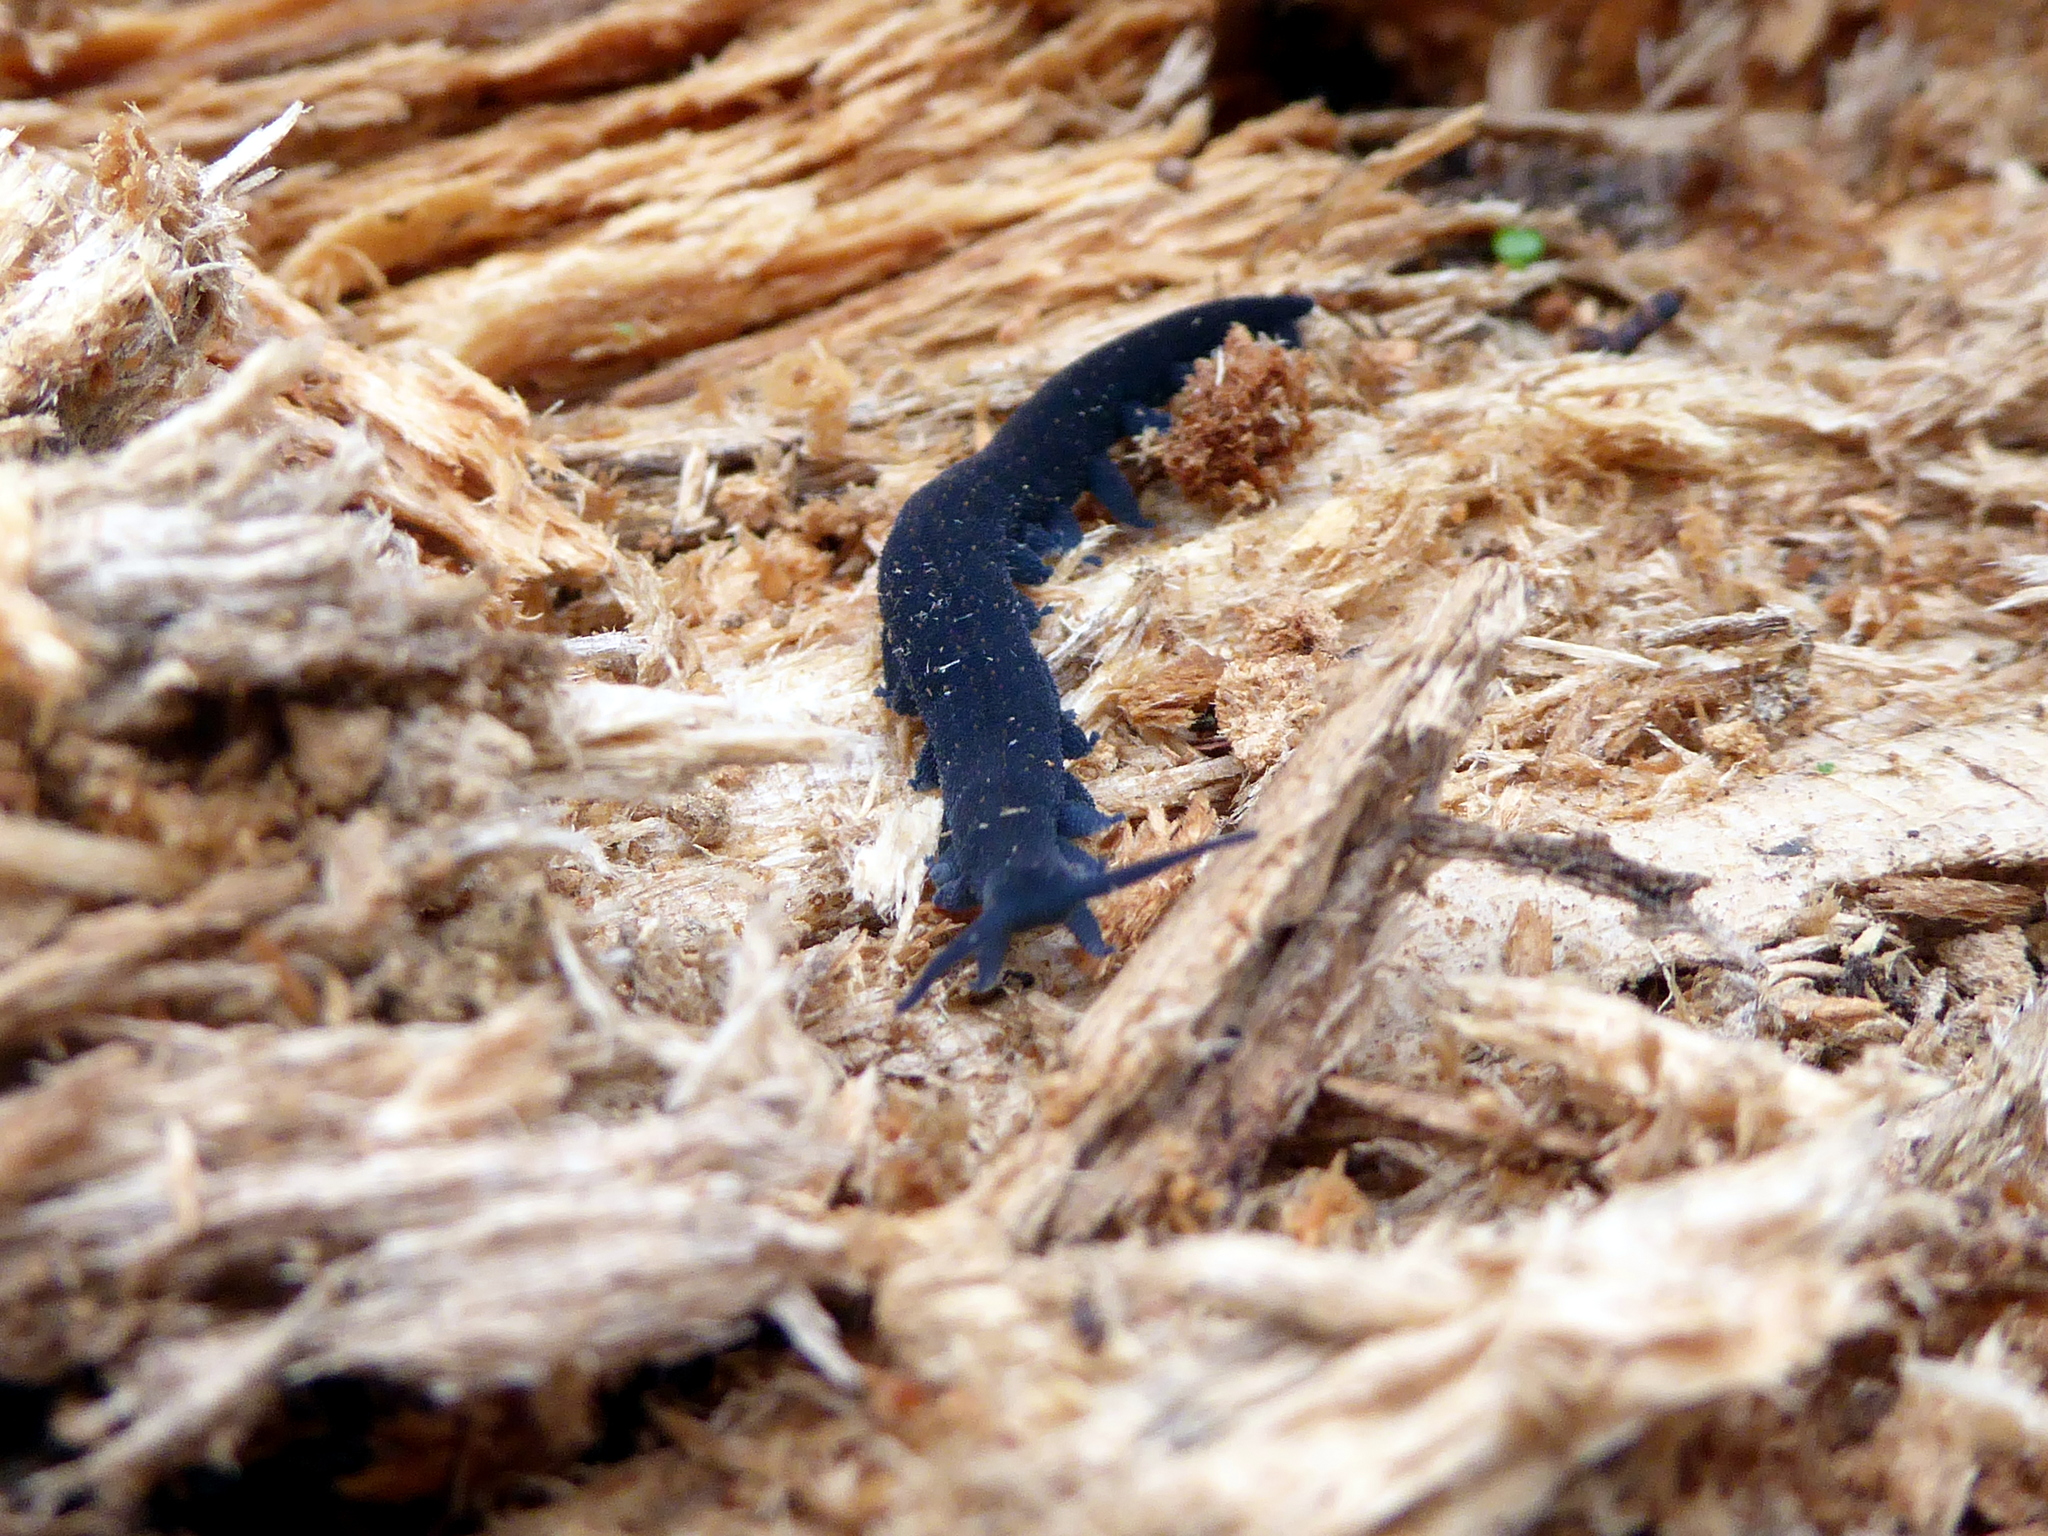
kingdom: Animalia
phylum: Onychophora
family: Peripatopsidae
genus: Euperipatoides
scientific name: Euperipatoides rowelli
